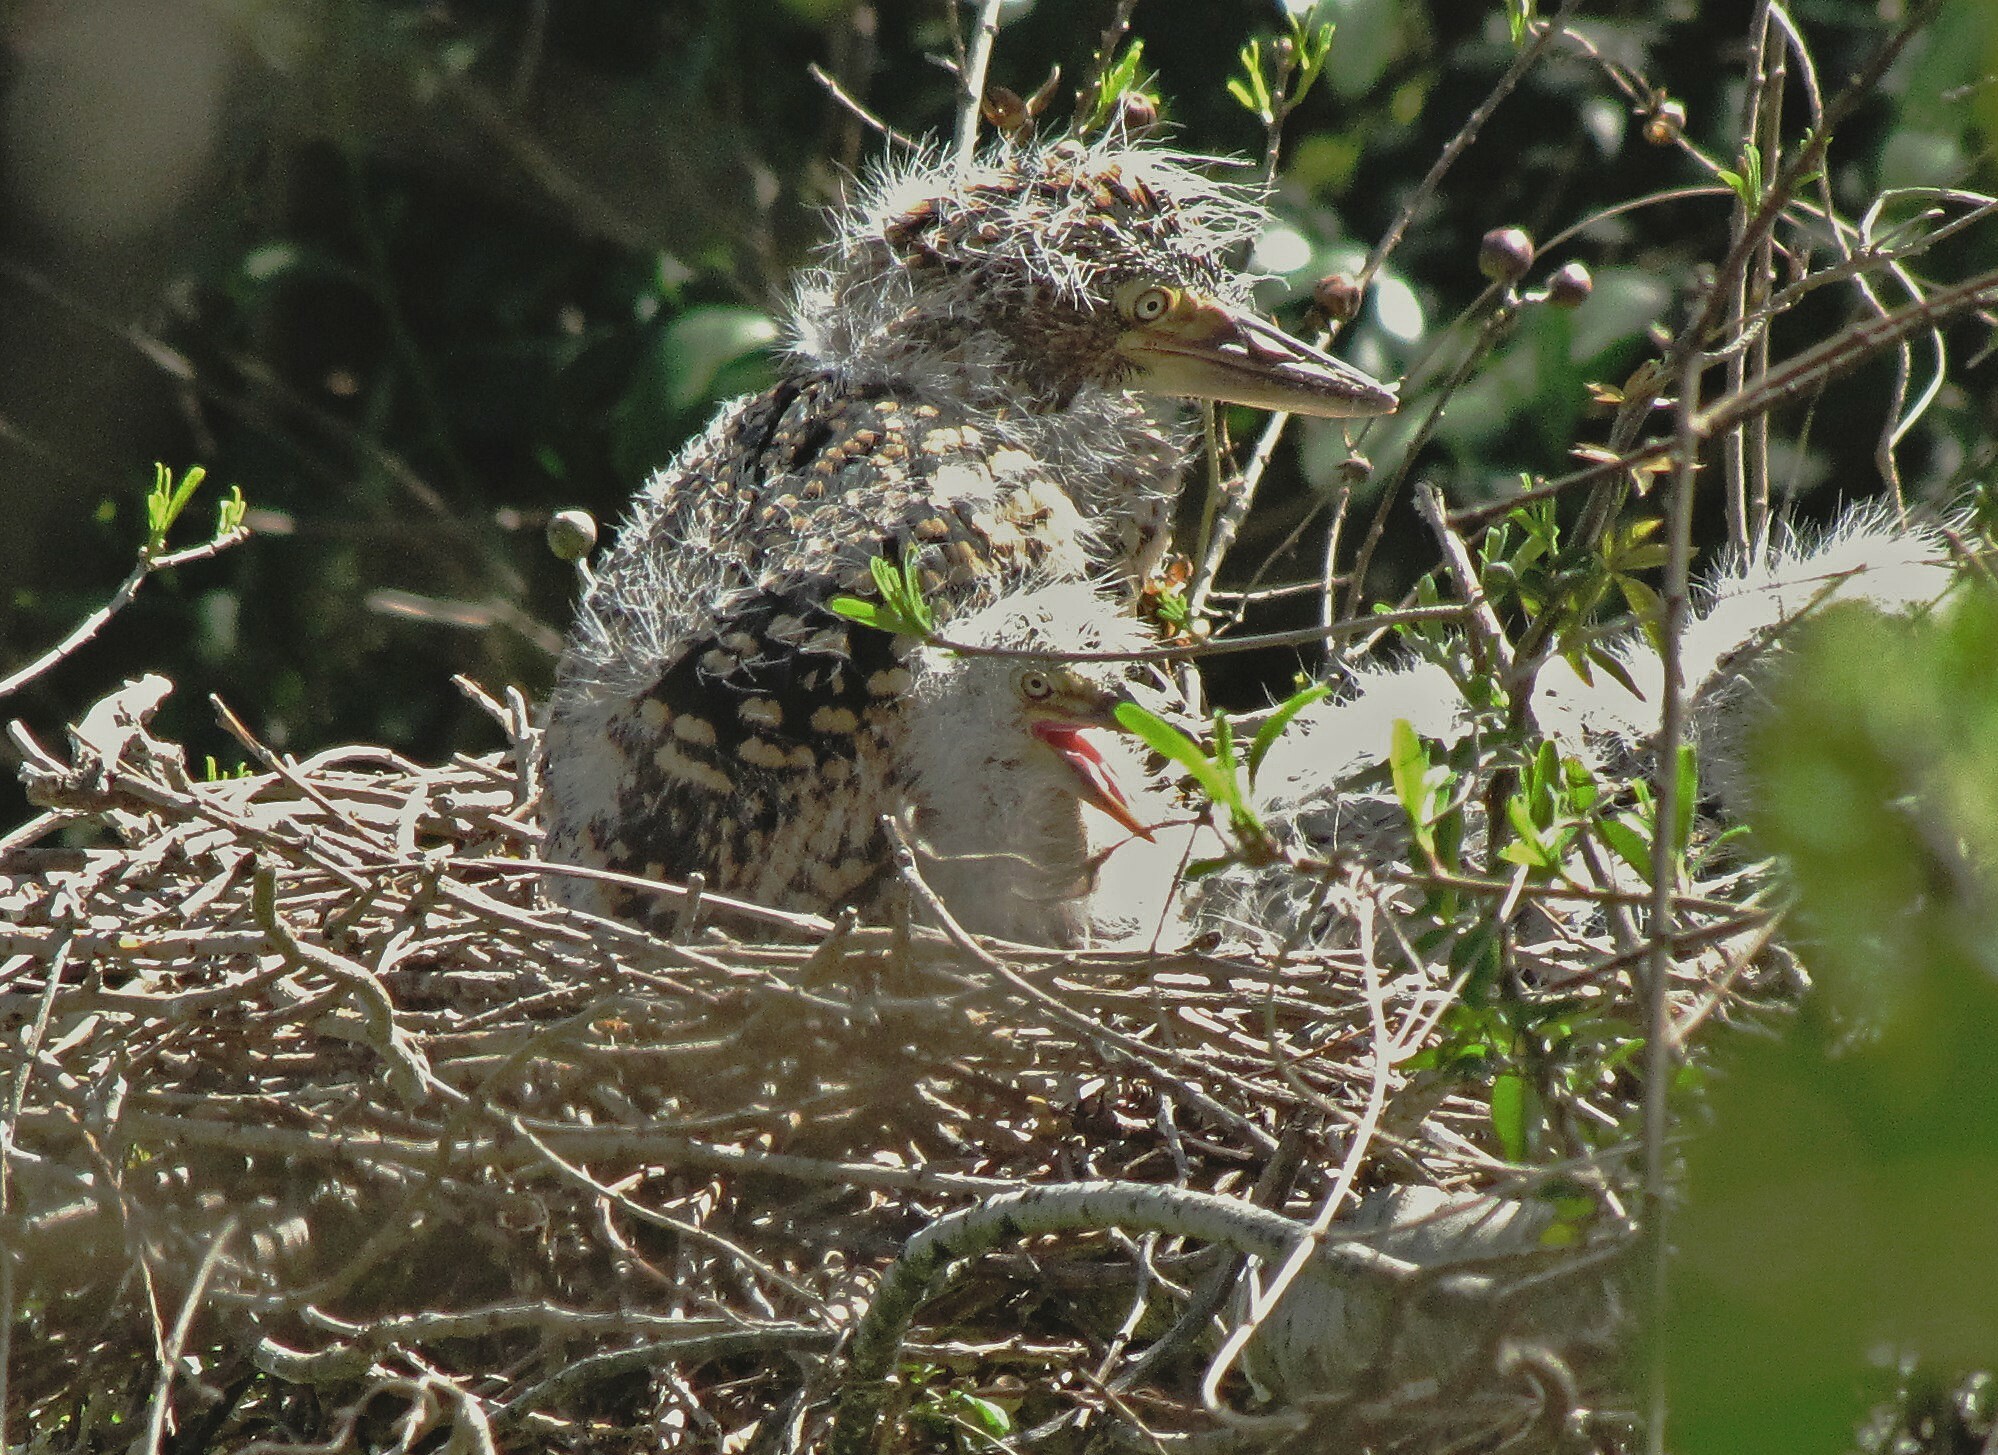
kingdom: Animalia
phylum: Chordata
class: Aves
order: Pelecaniformes
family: Ardeidae
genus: Tigrisoma
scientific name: Tigrisoma lineatum
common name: Rufescent tiger-heron
